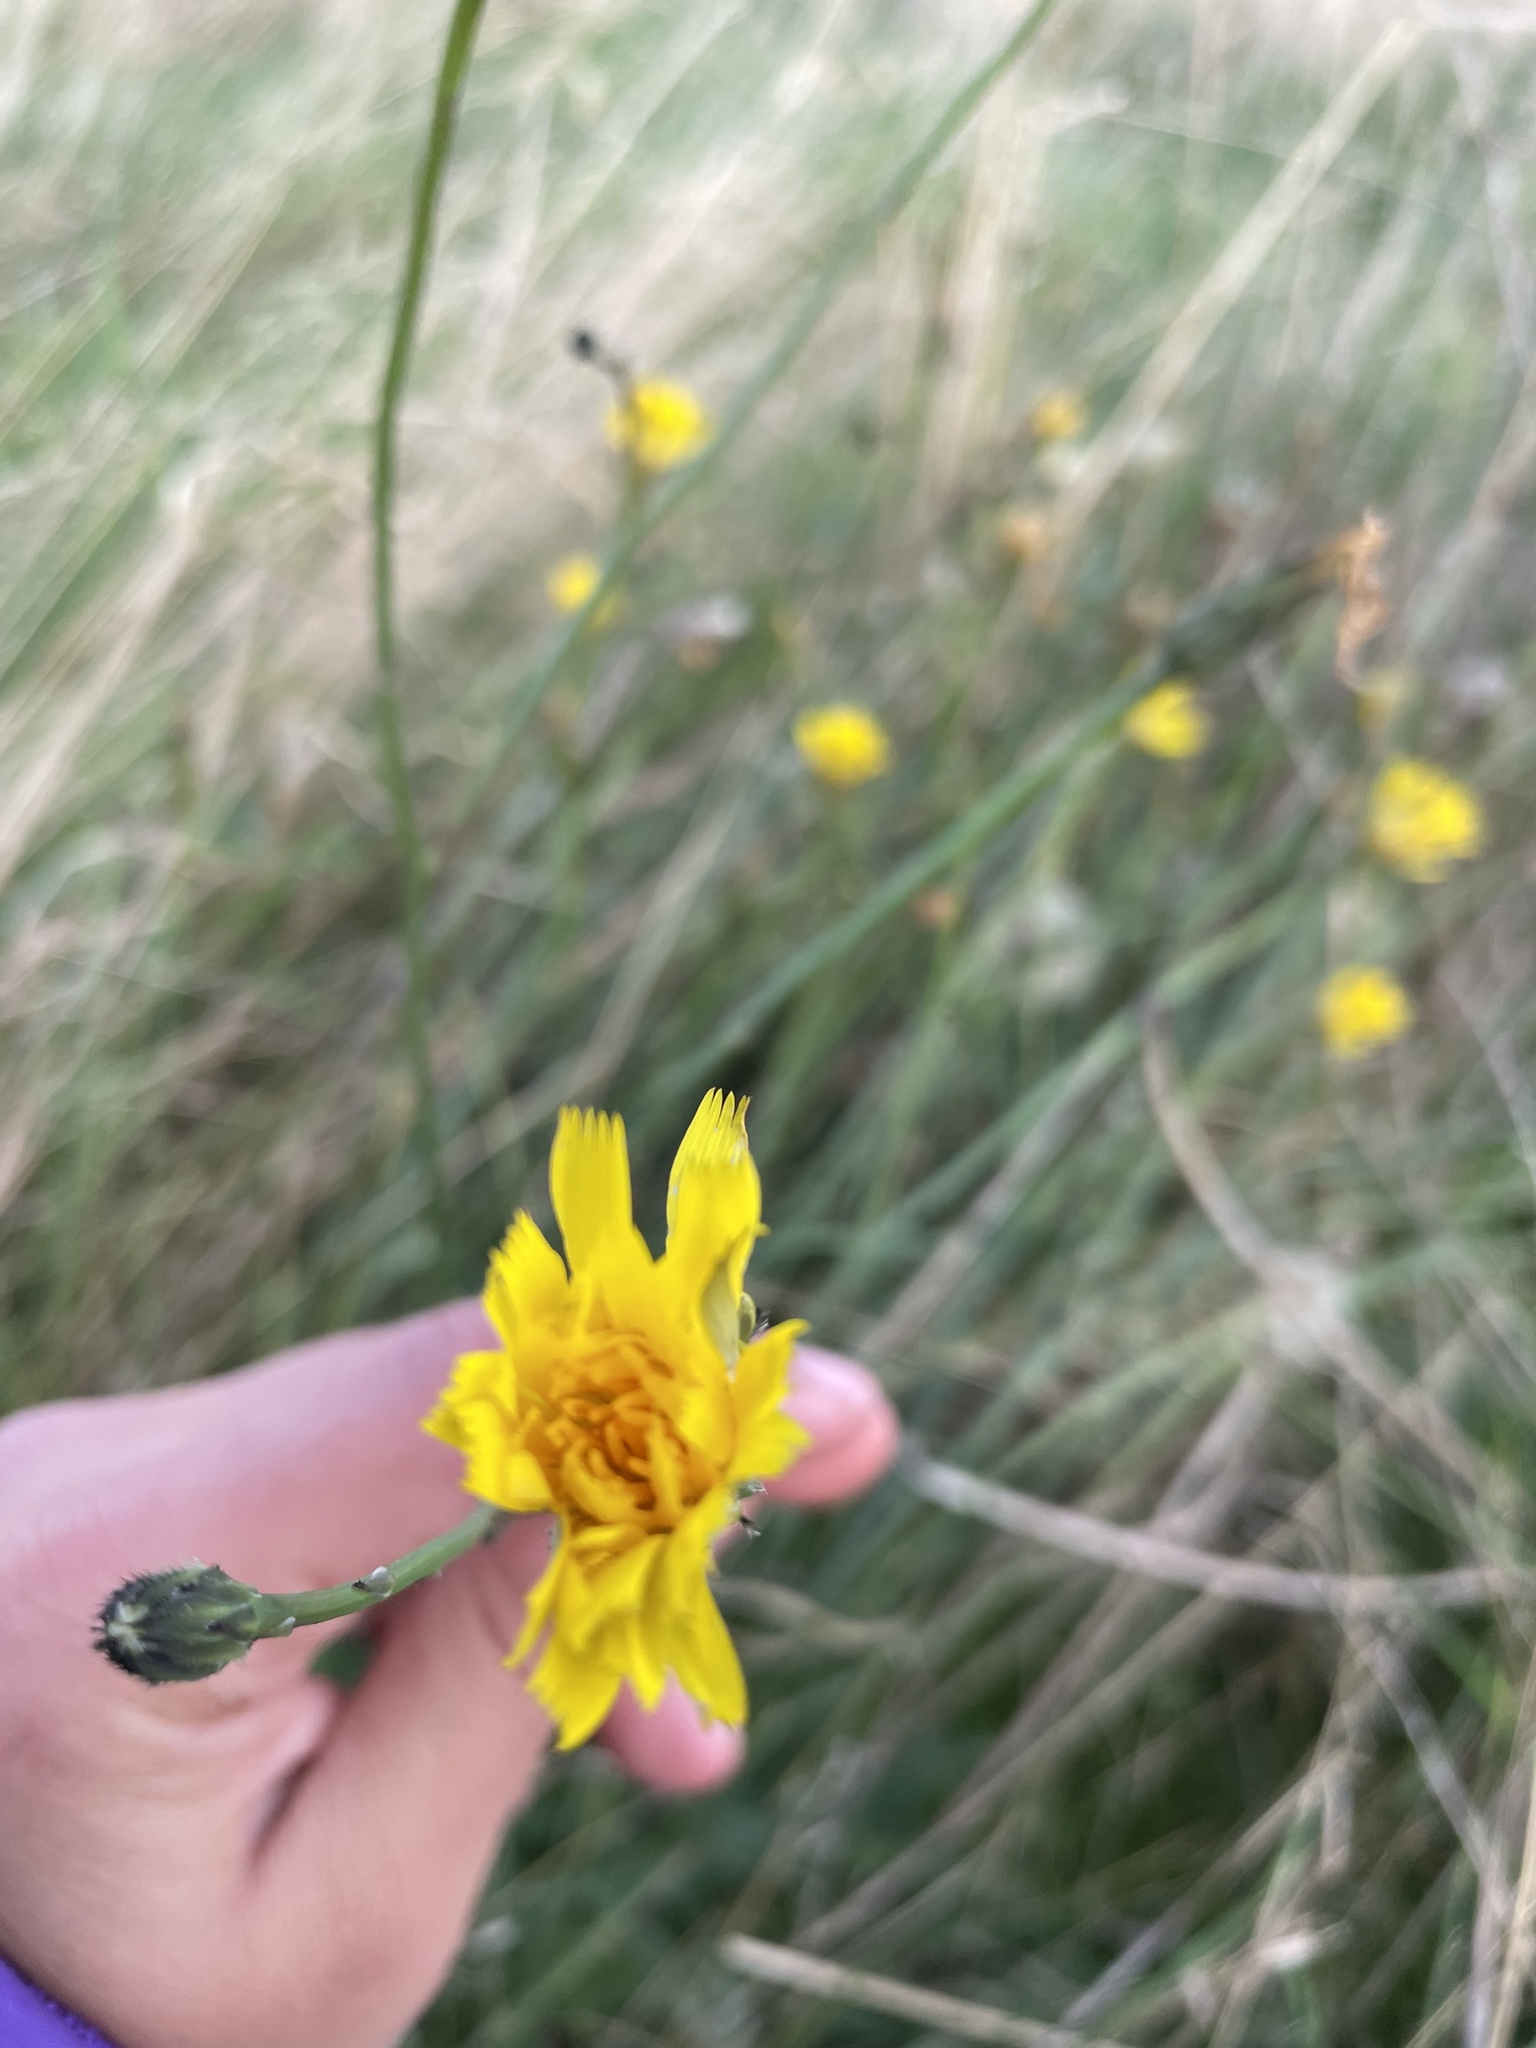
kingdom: Plantae
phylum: Tracheophyta
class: Magnoliopsida
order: Asterales
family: Asteraceae
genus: Hypochaeris
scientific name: Hypochaeris radicata
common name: Flatweed
